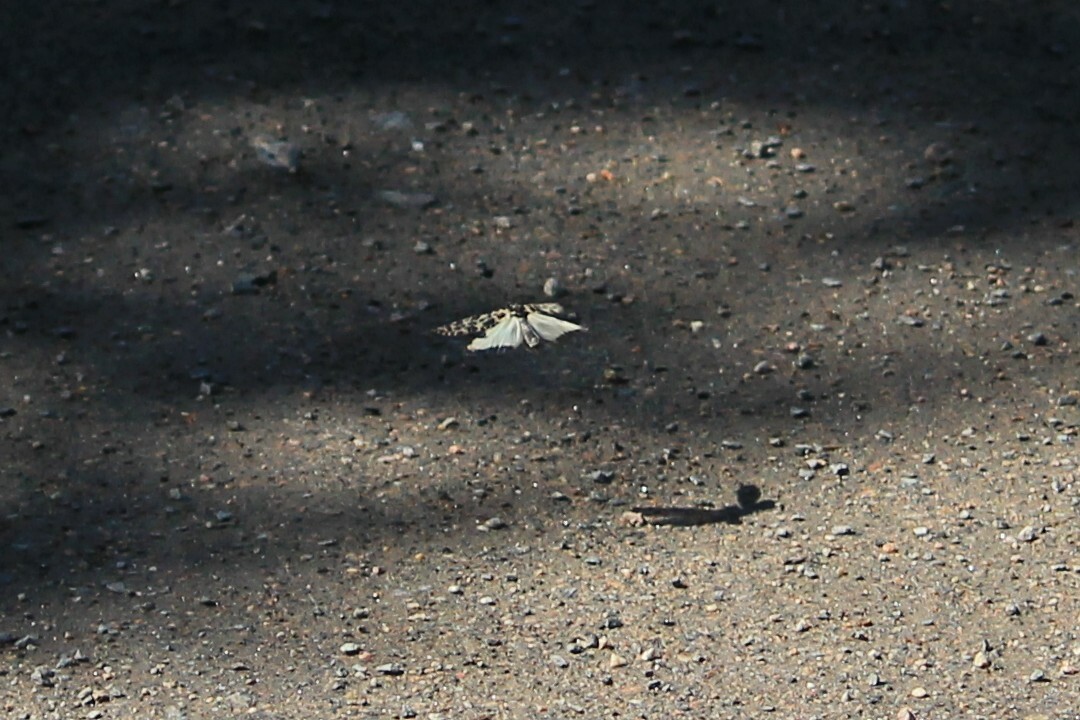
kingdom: Animalia
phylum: Arthropoda
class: Insecta
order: Trichoptera
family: Phryganeidae
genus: Semblis
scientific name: Semblis phalaenoides
